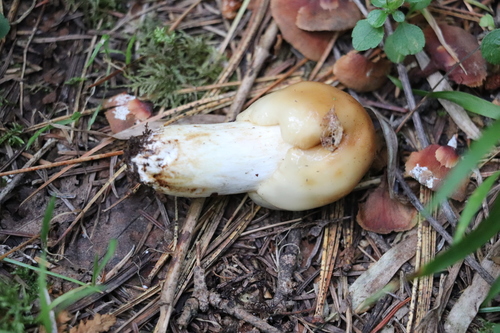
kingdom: Fungi
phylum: Basidiomycota
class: Agaricomycetes
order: Russulales
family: Russulaceae
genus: Russula
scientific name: Russula foetens
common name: Foetid russula
